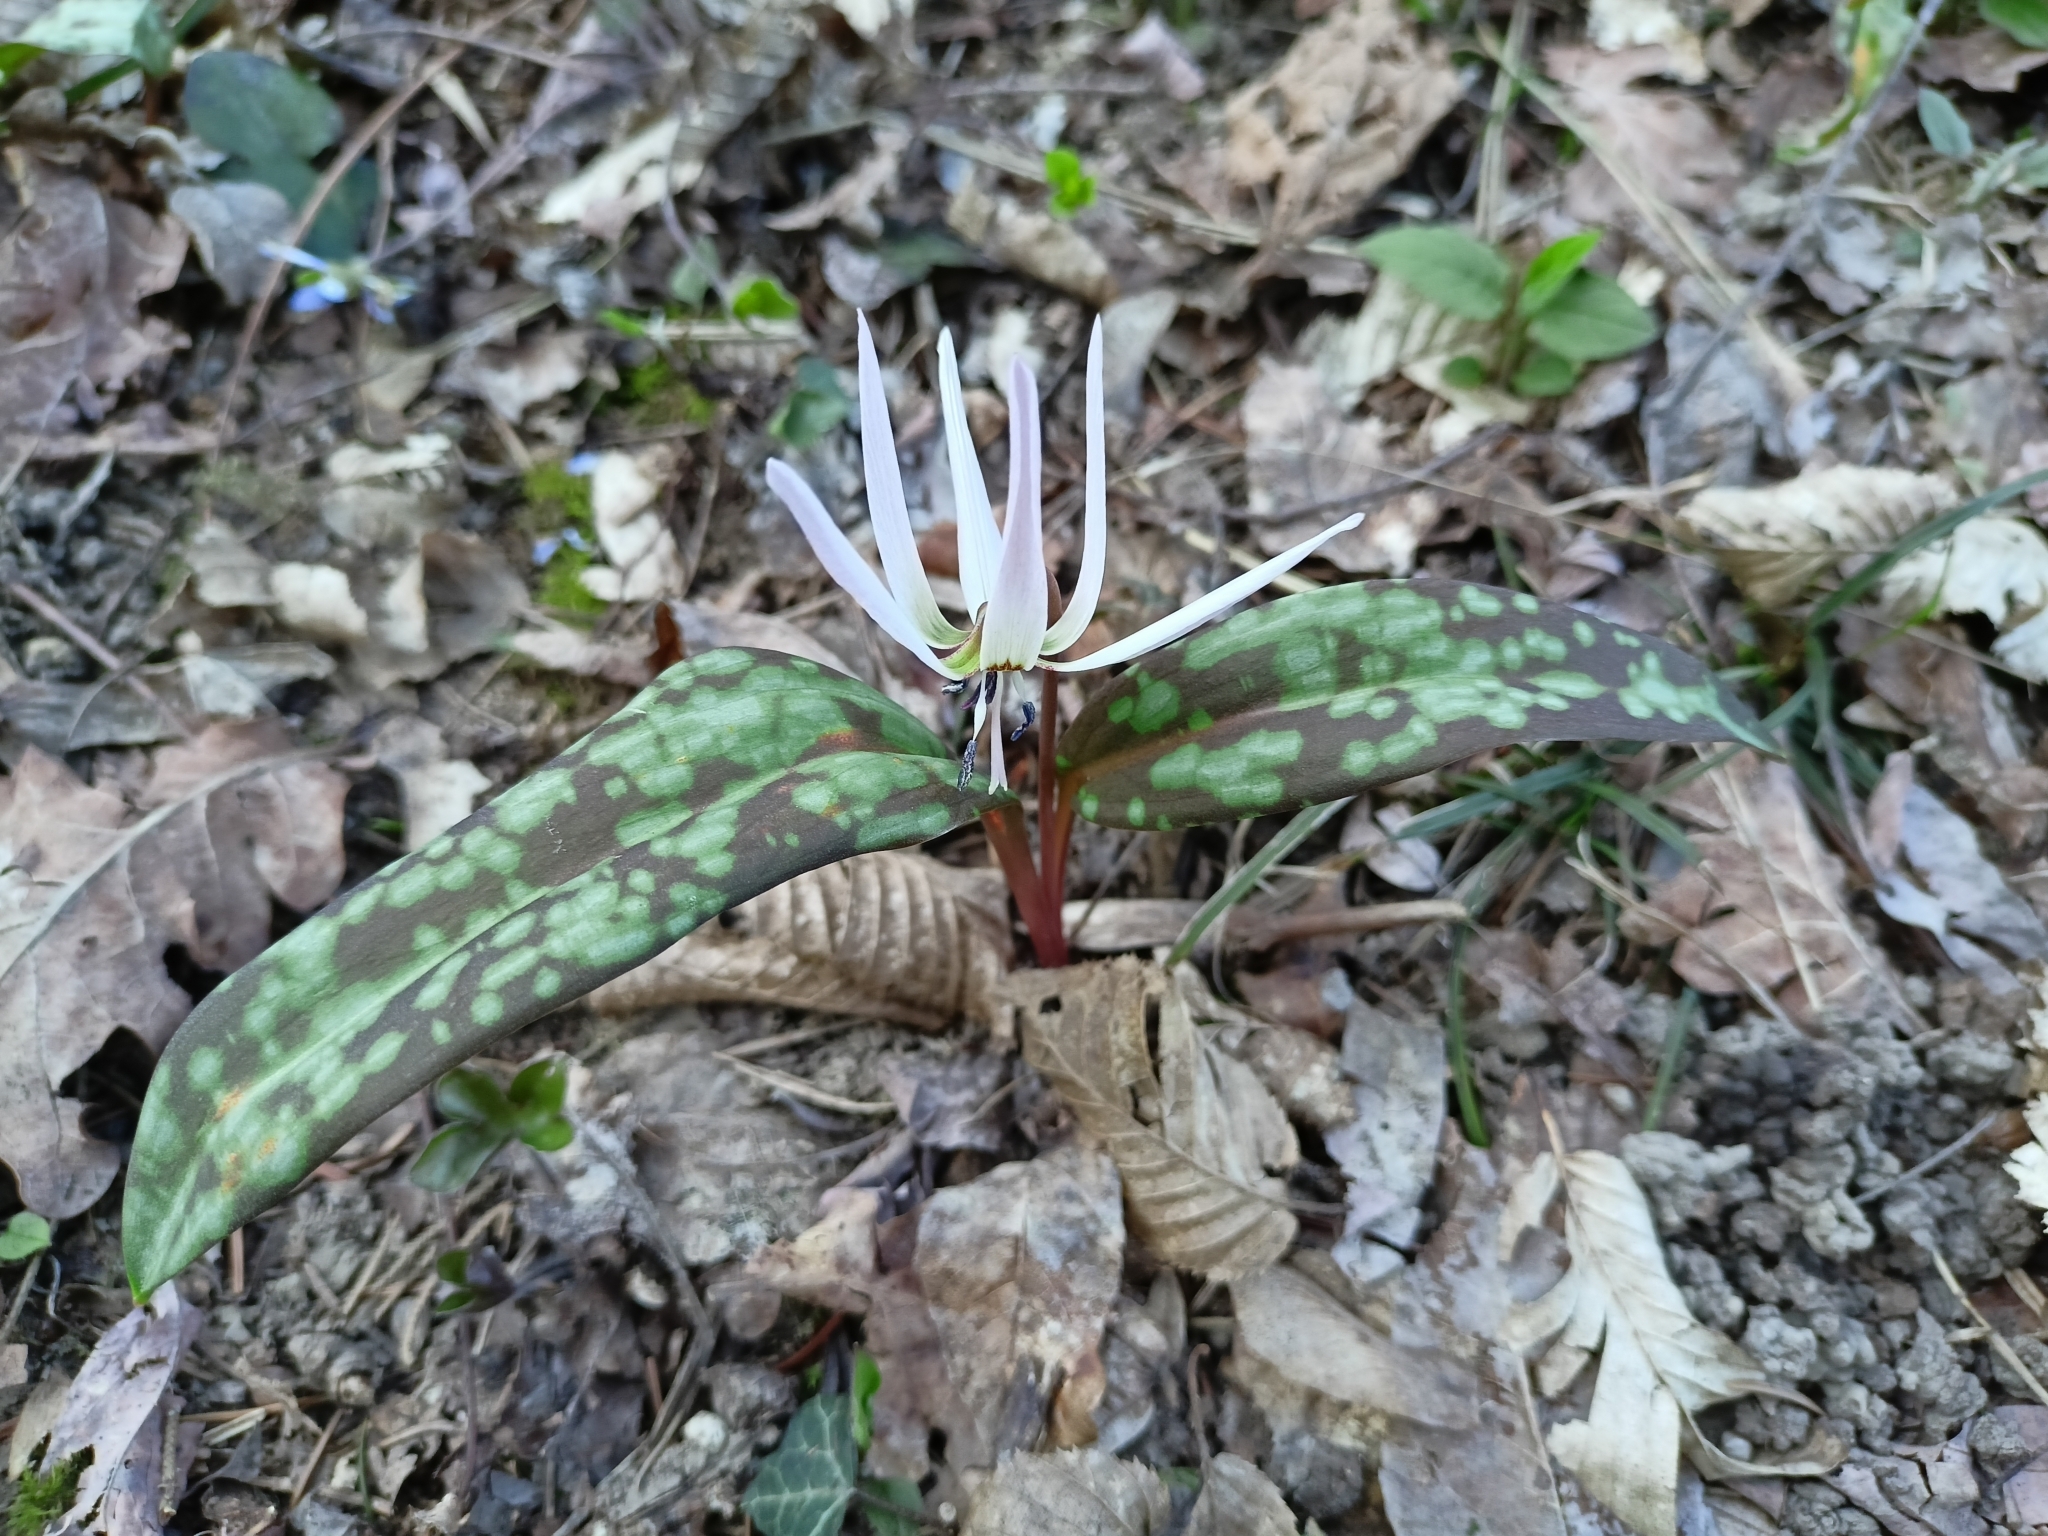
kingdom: Plantae
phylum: Tracheophyta
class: Liliopsida
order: Liliales
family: Liliaceae
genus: Erythronium
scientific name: Erythronium dens-canis
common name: Dog's-tooth-violet
